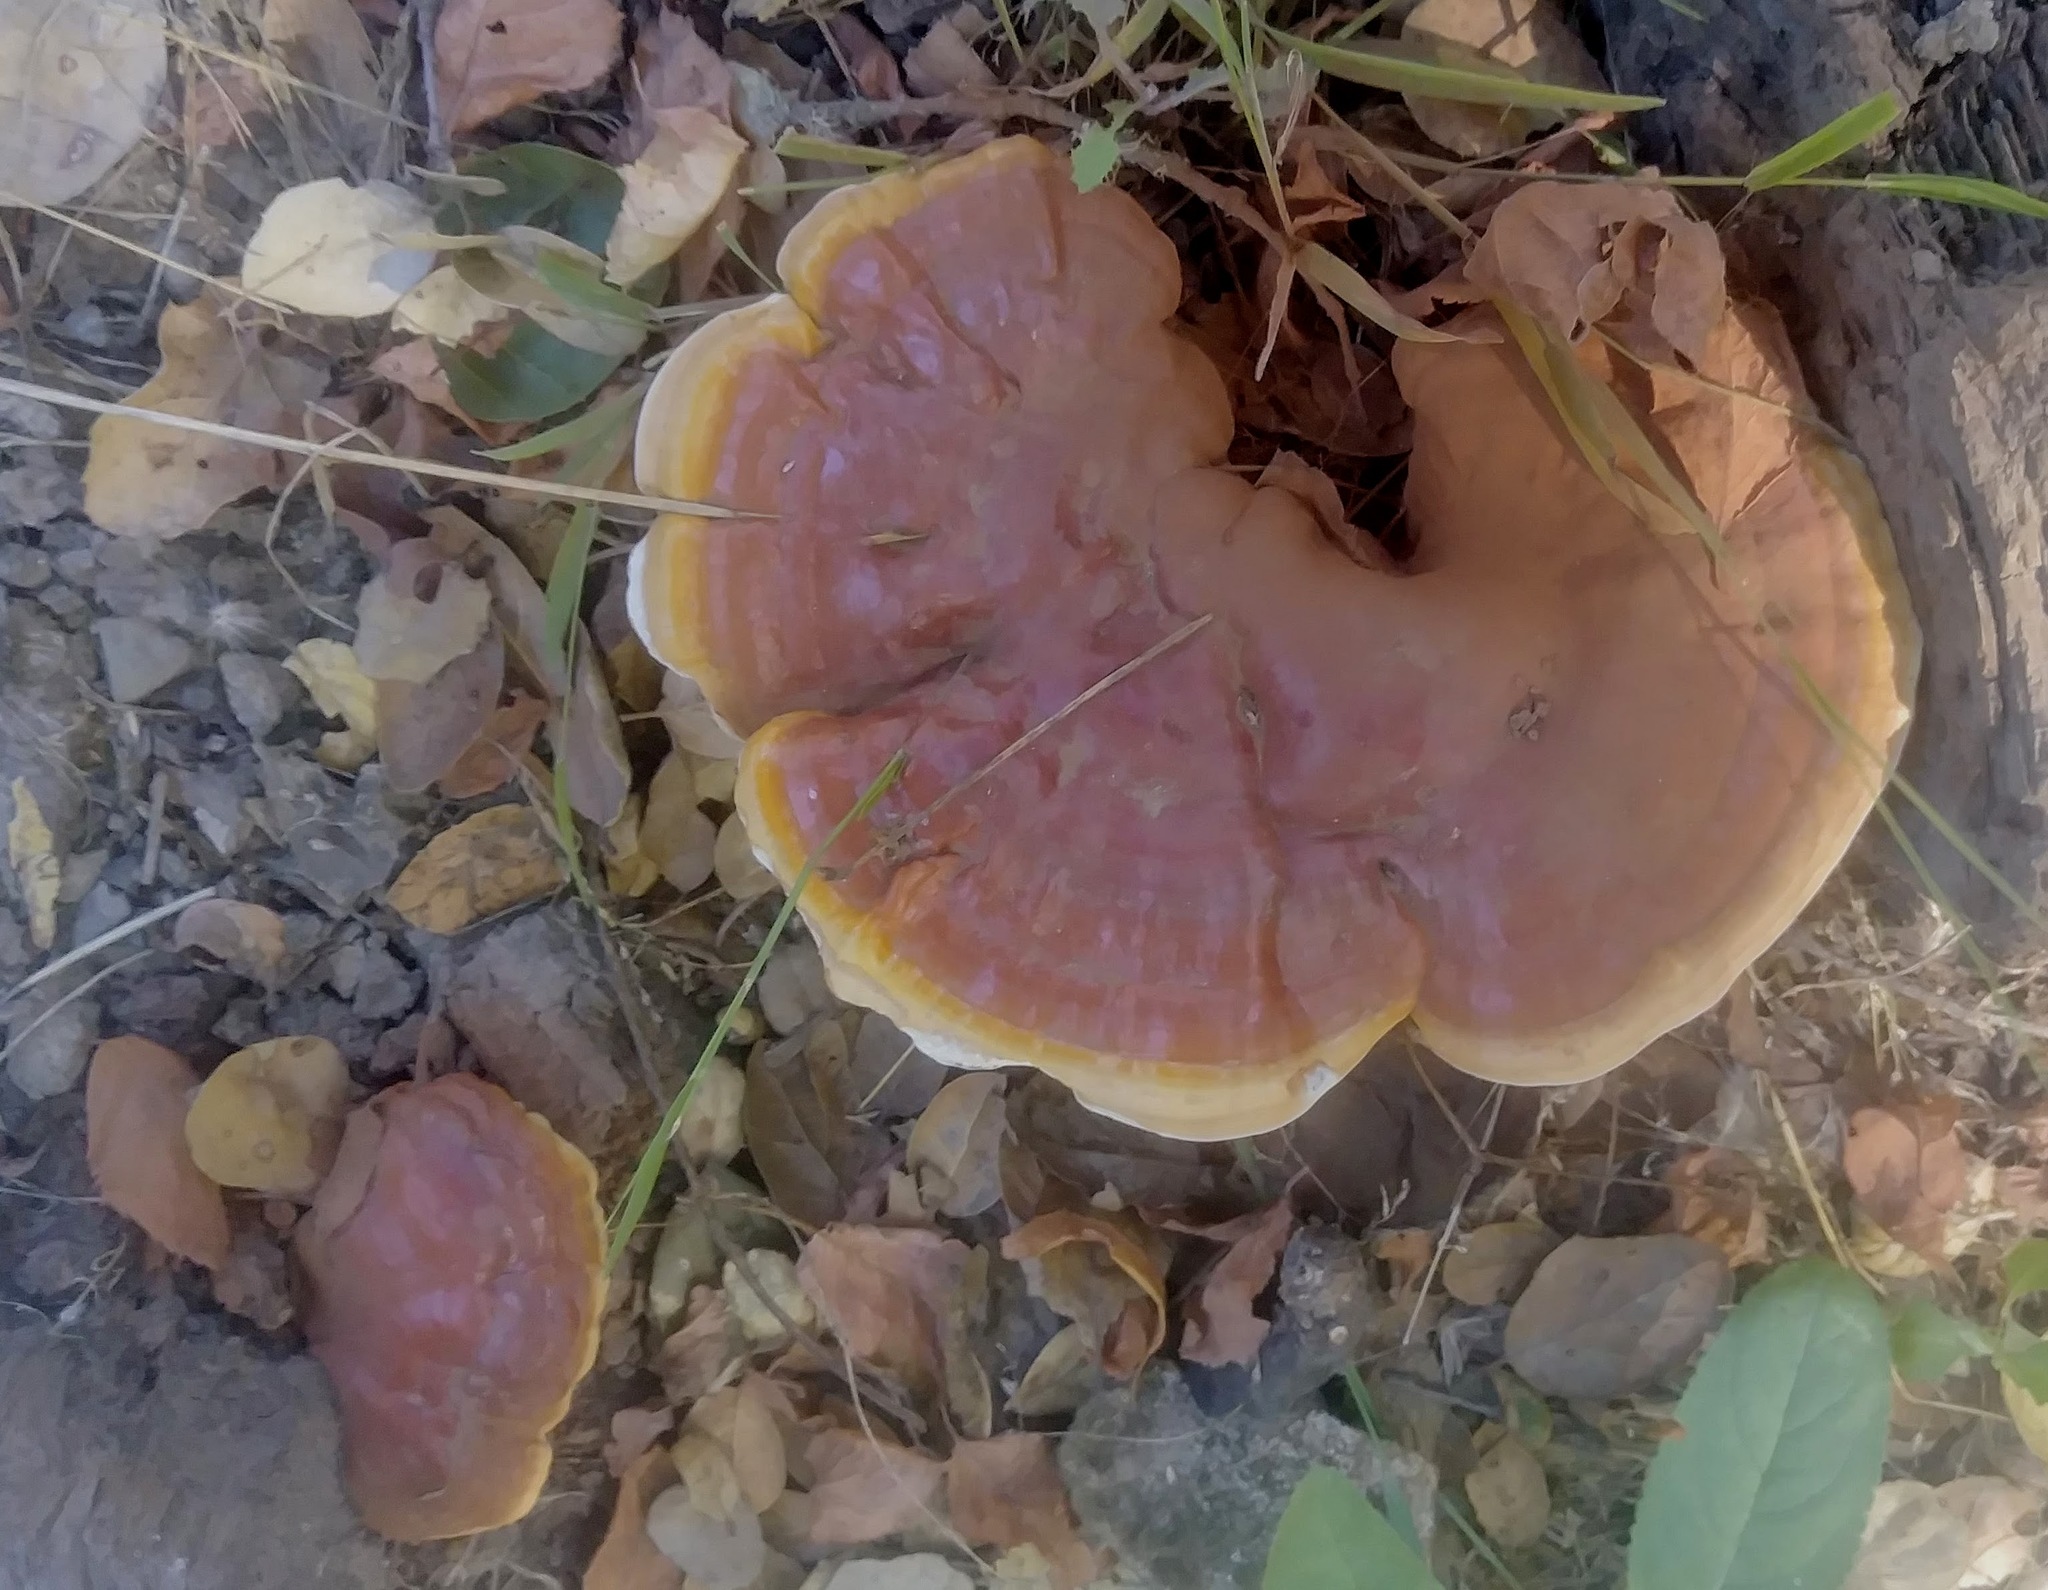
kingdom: Fungi
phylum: Basidiomycota
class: Agaricomycetes
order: Polyporales
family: Polyporaceae
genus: Ganoderma
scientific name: Ganoderma polychromum
